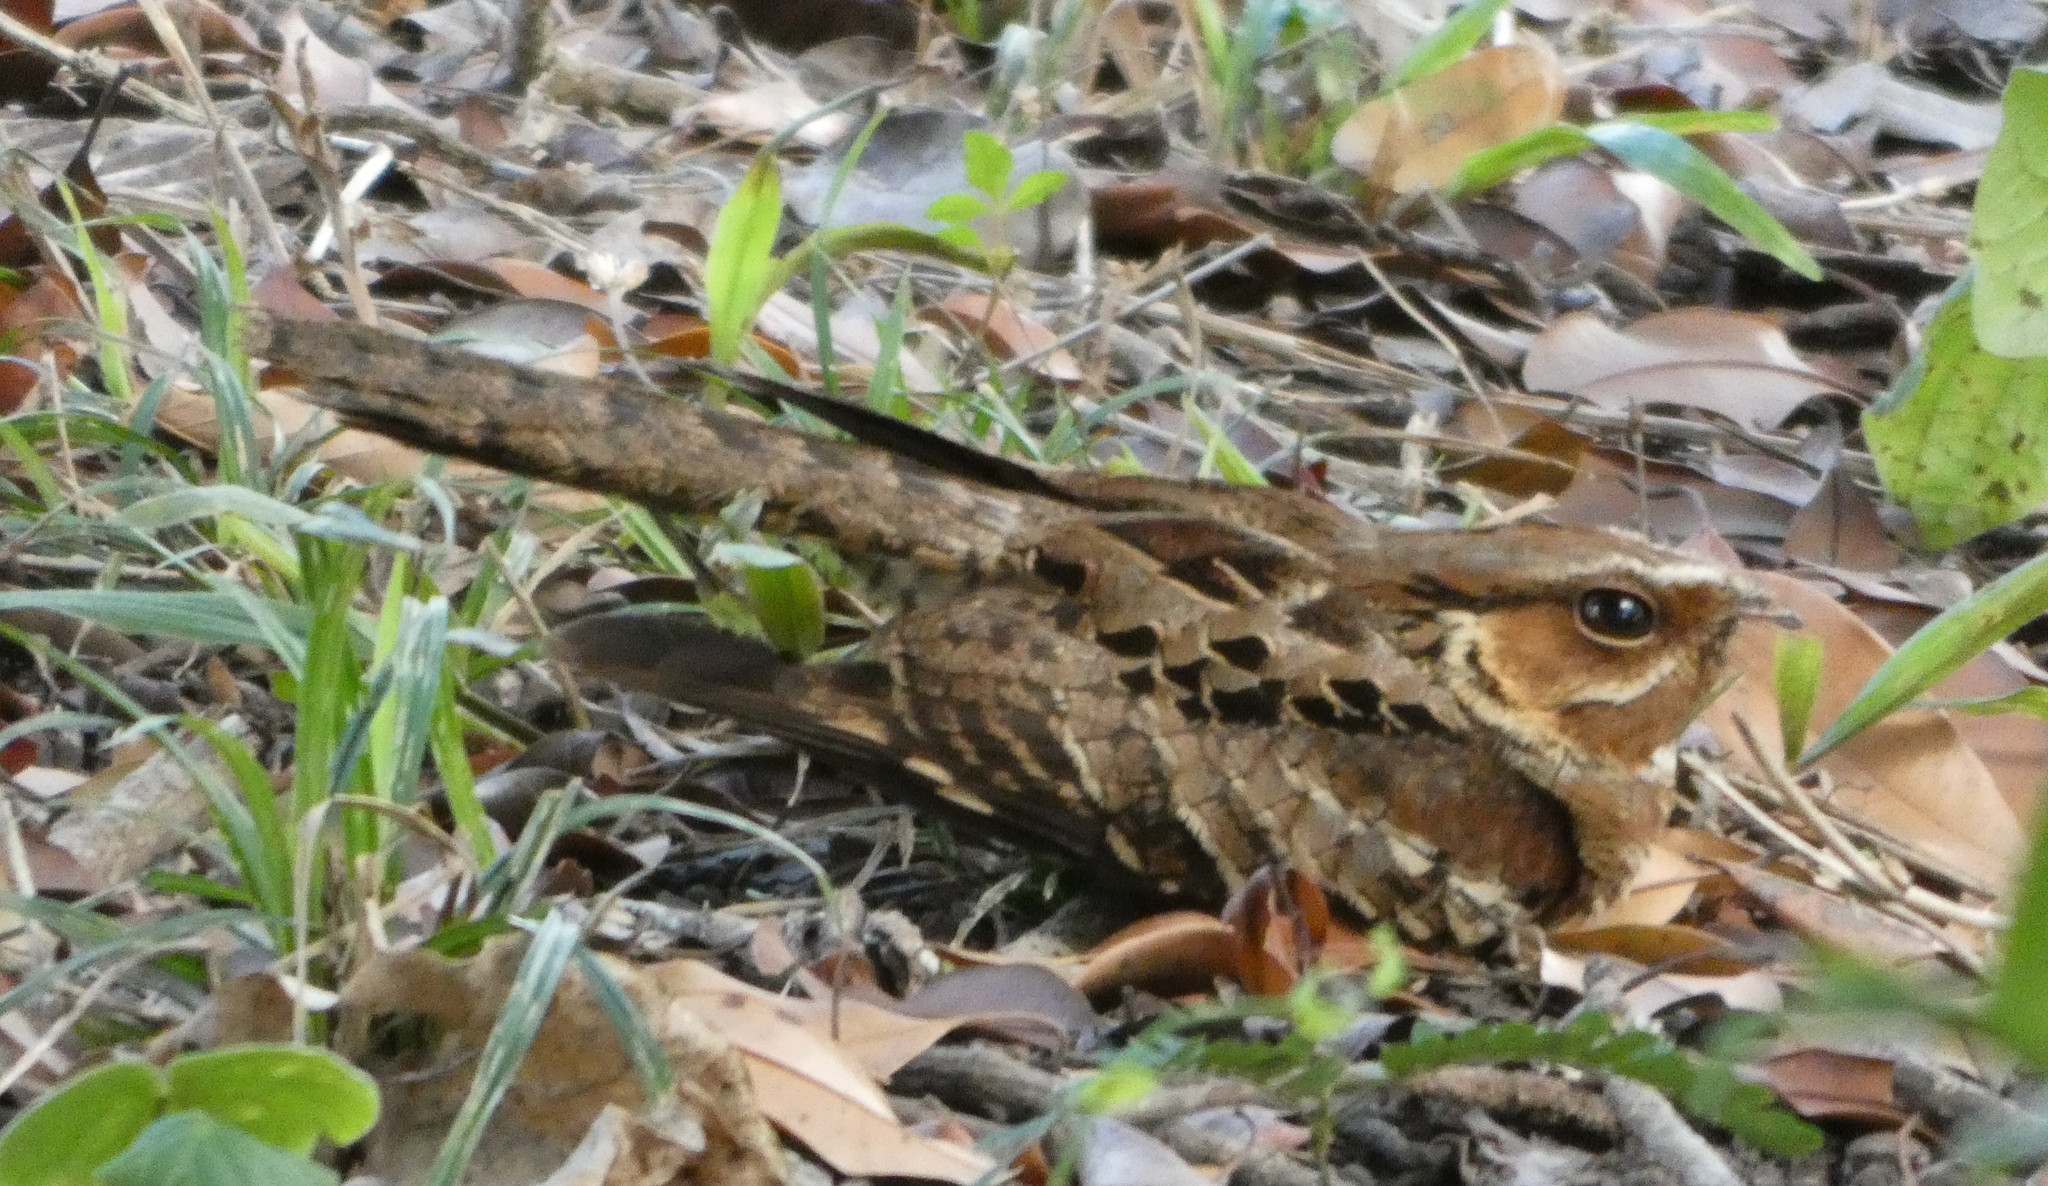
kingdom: Animalia
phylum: Chordata
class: Aves
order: Caprimulgiformes
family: Caprimulgidae
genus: Nyctidromus
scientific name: Nyctidromus albicollis
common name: Pauraque
